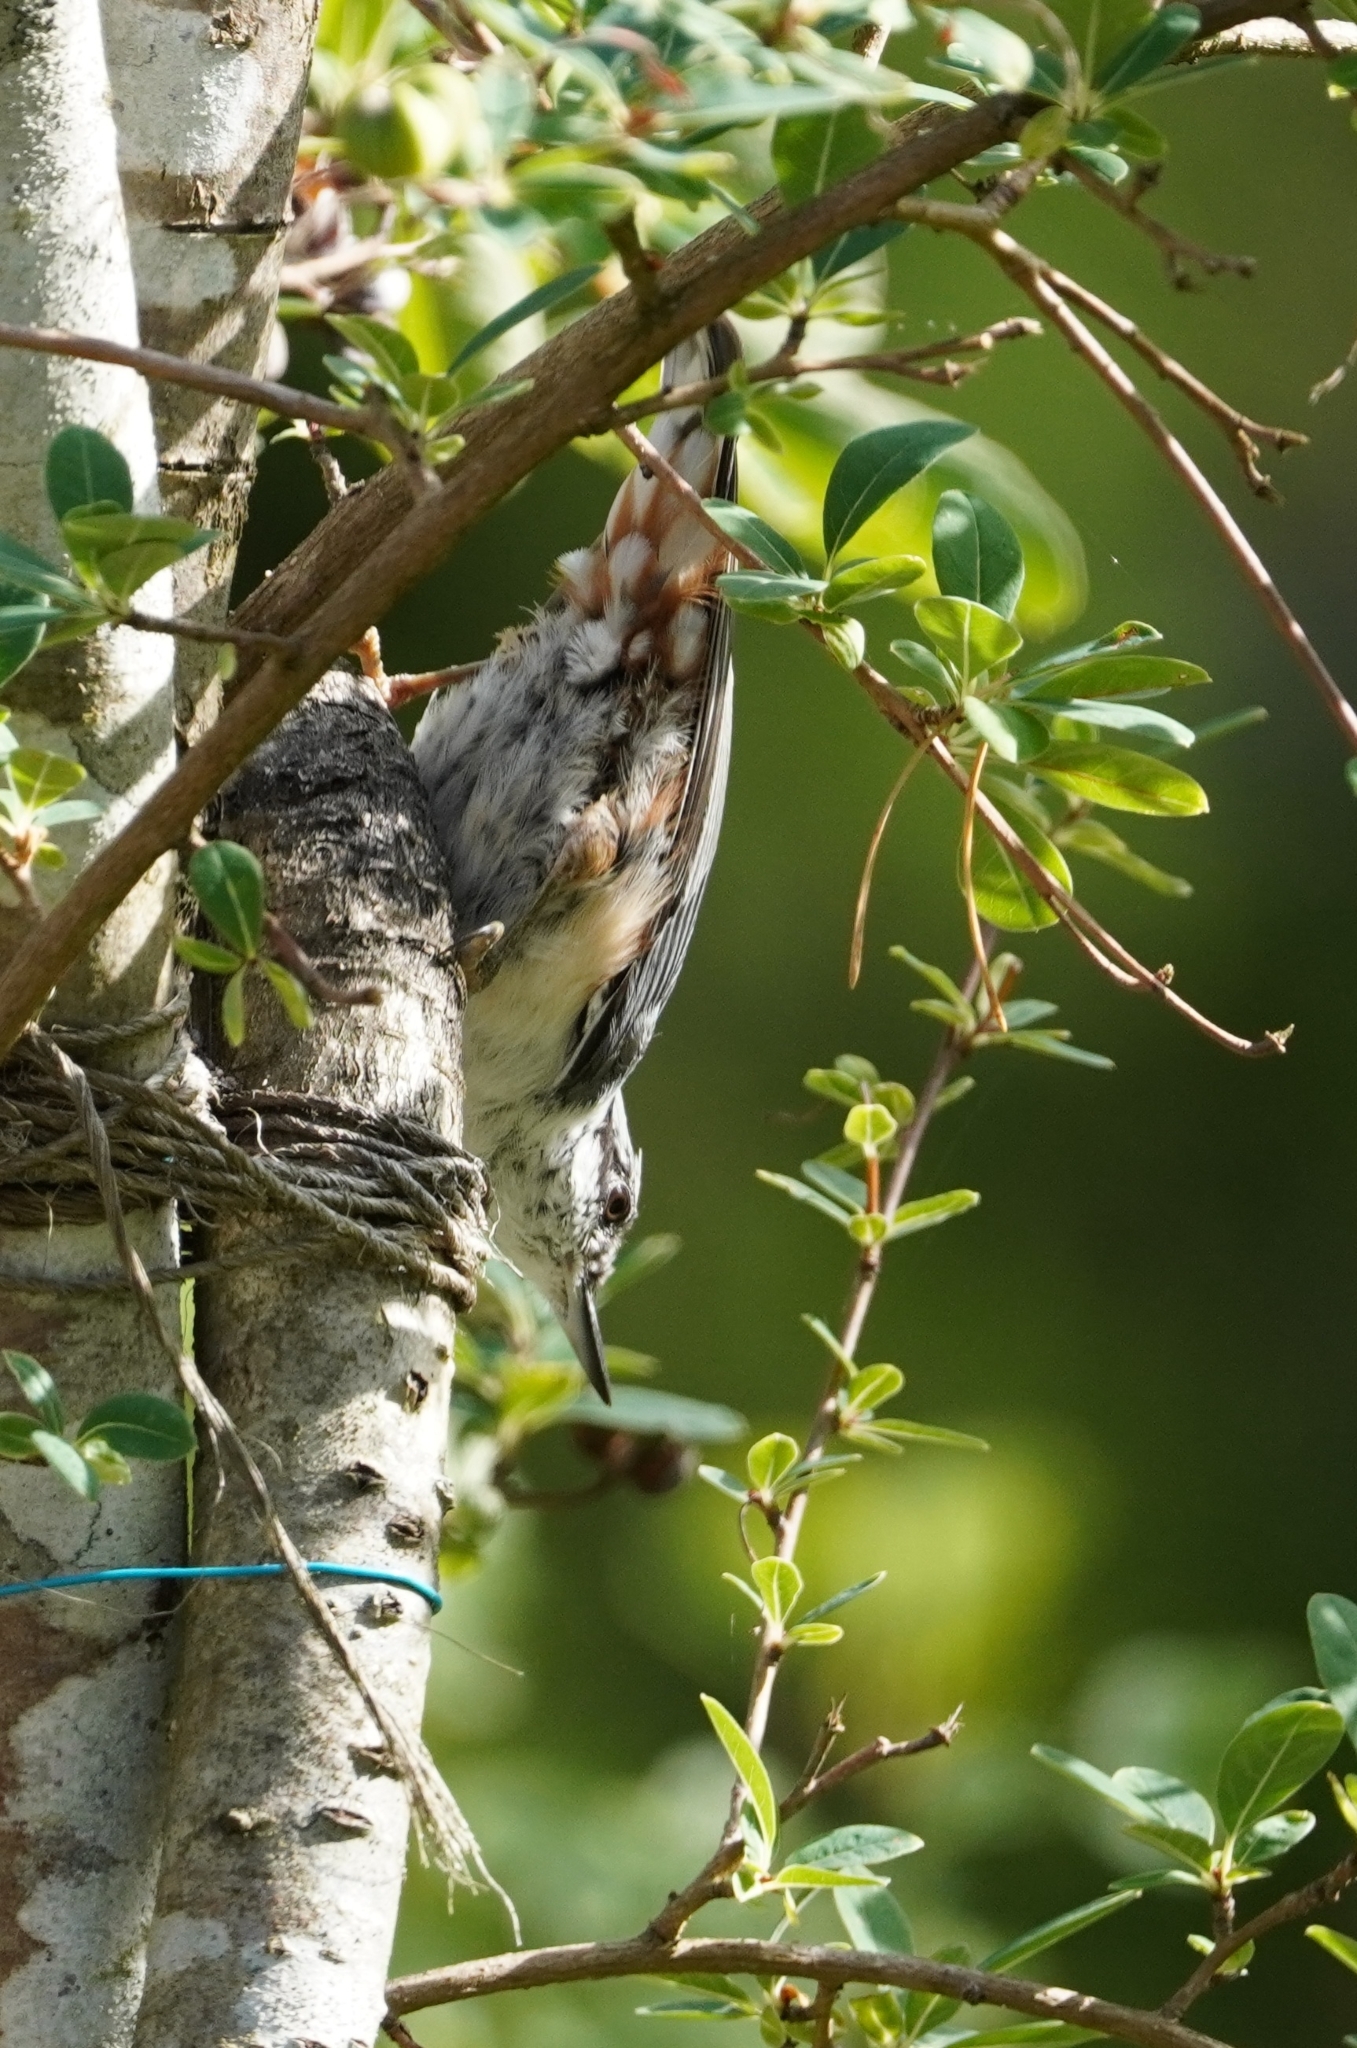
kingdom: Animalia
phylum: Chordata
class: Aves
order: Passeriformes
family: Sittidae
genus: Sitta
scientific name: Sitta europaea
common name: Eurasian nuthatch
